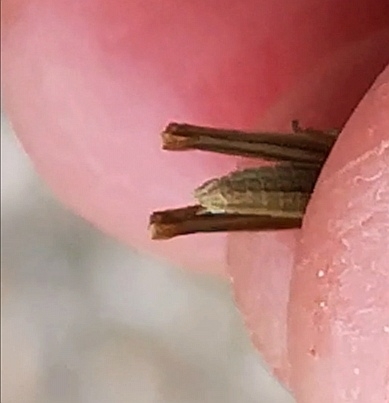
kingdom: Animalia
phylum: Arthropoda
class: Insecta
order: Orthoptera
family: Acrididae
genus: Euthystira
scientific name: Euthystira brachyptera
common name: Small gold grasshopper
